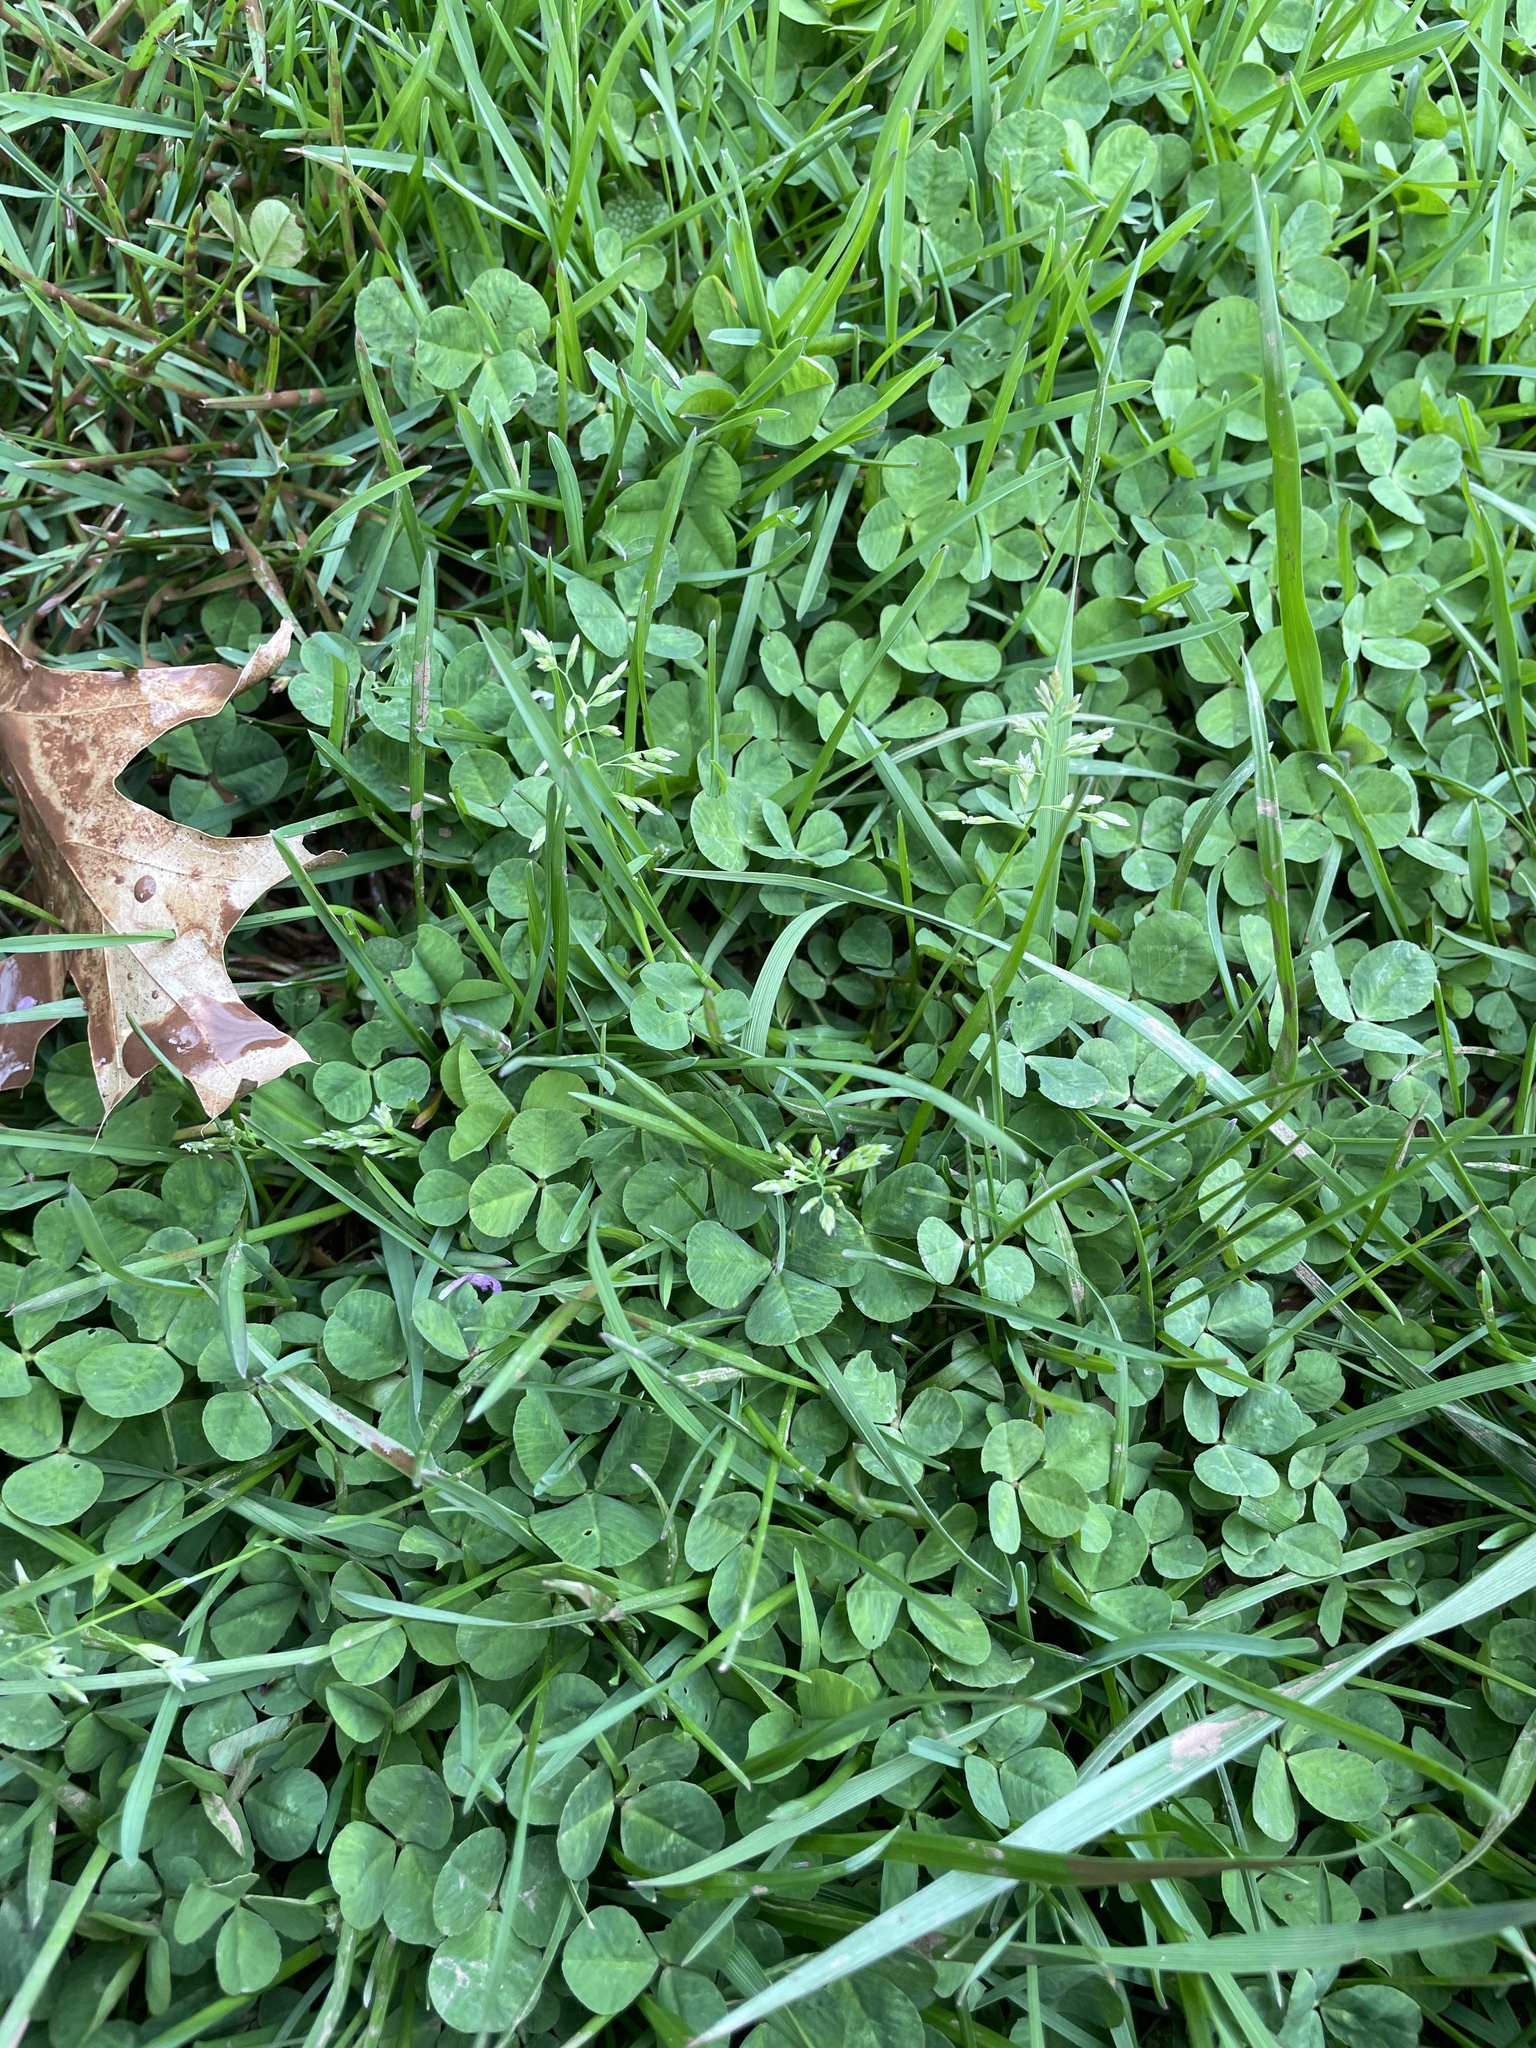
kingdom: Plantae
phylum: Tracheophyta
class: Liliopsida
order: Poales
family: Poaceae
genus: Poa
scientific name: Poa annua
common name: Annual bluegrass
